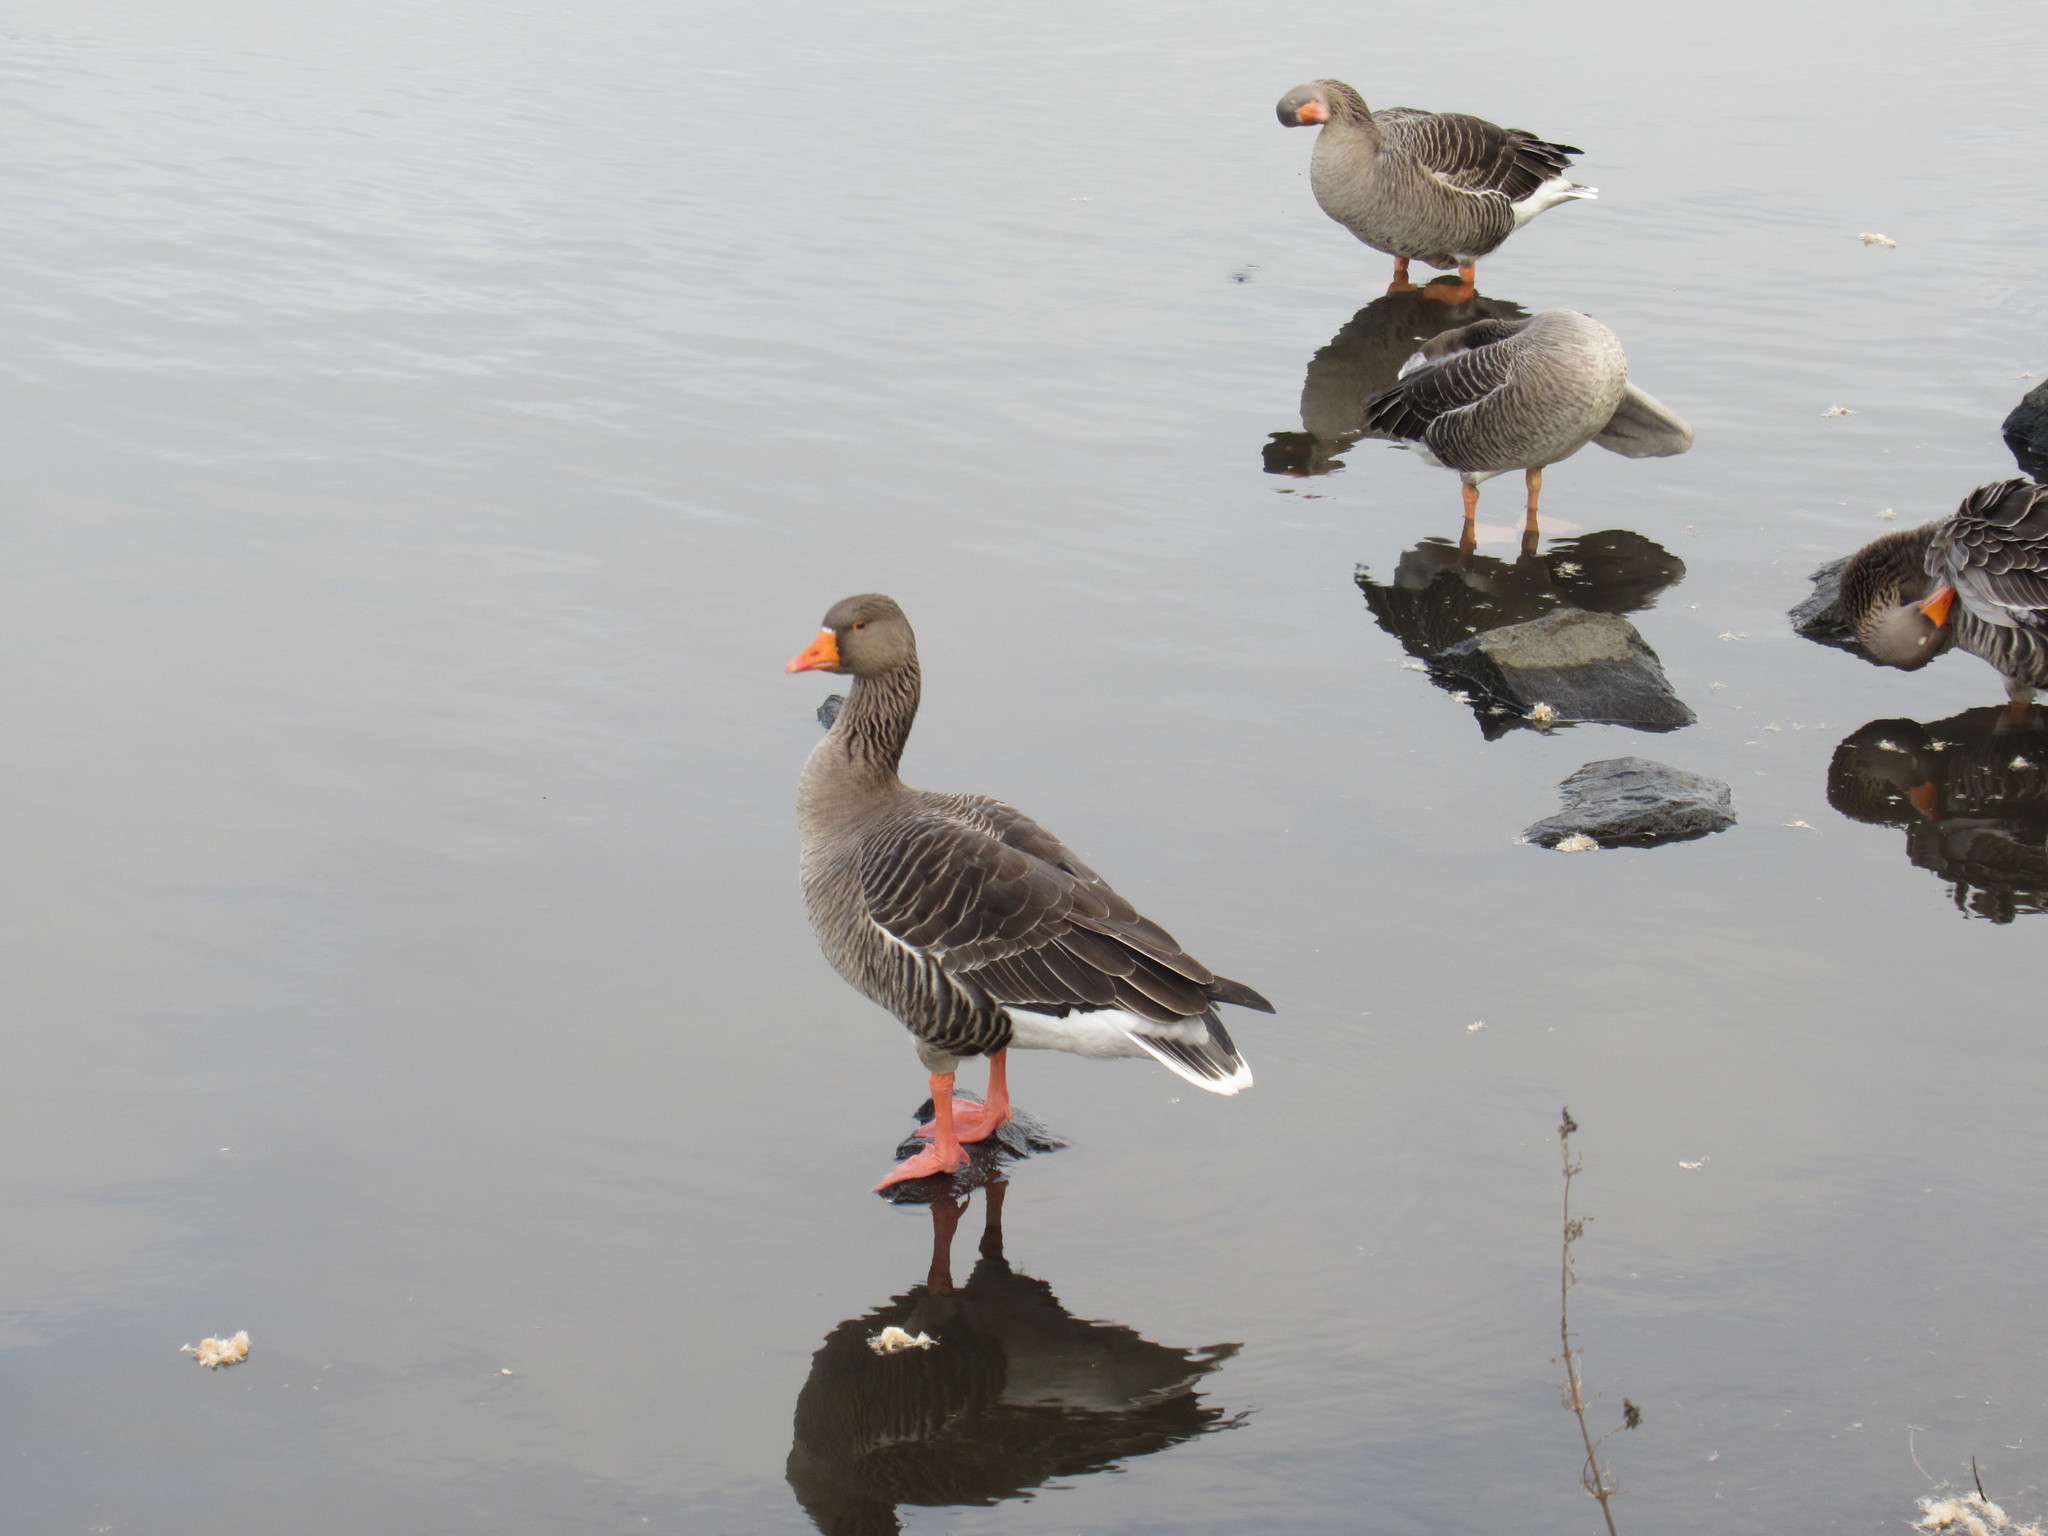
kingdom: Animalia
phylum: Chordata
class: Aves
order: Anseriformes
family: Anatidae
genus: Anser
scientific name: Anser anser
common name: Greylag goose
